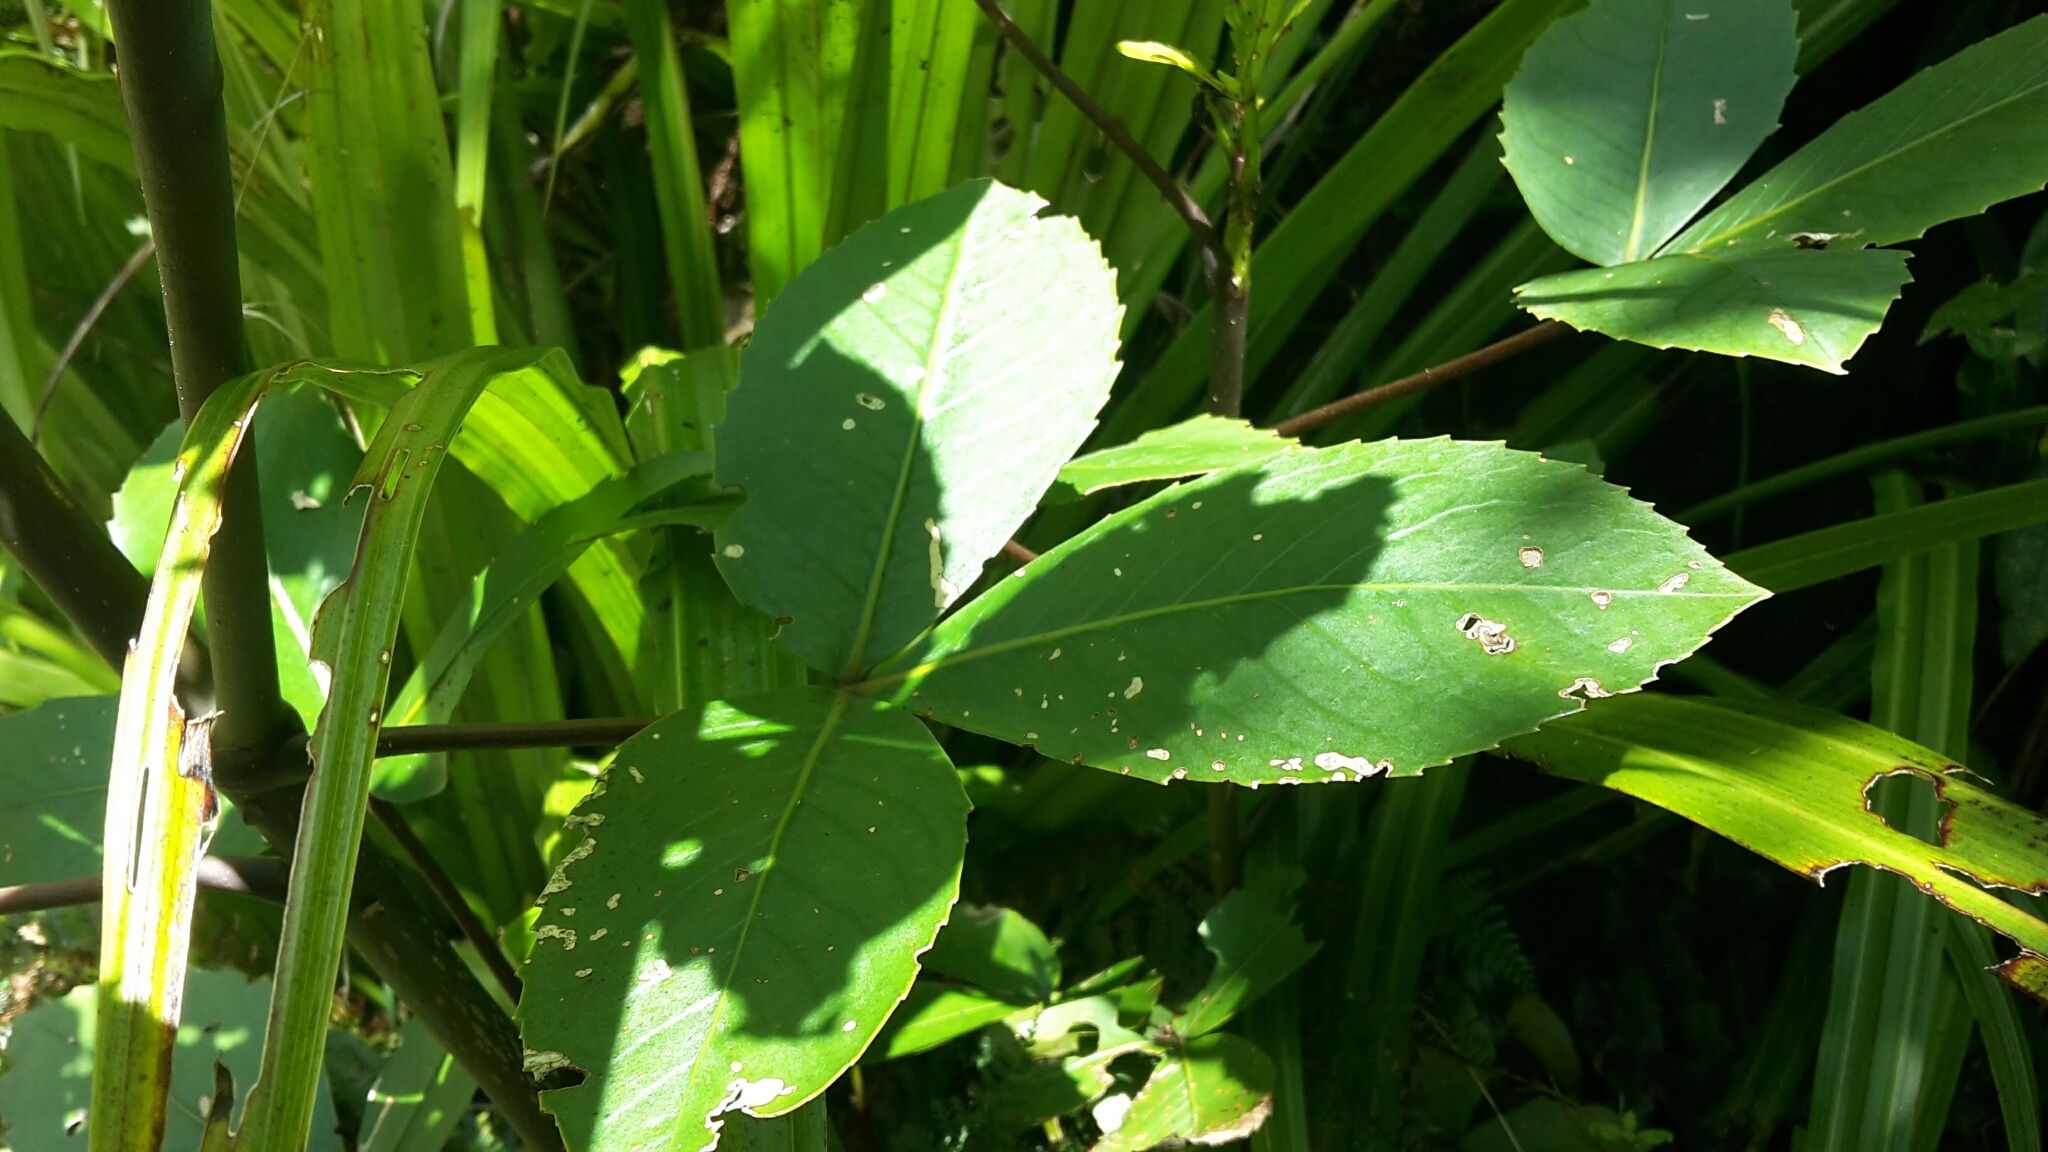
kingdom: Plantae
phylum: Tracheophyta
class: Magnoliopsida
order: Apiales
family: Araliaceae
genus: Neopanax
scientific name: Neopanax colensoi
